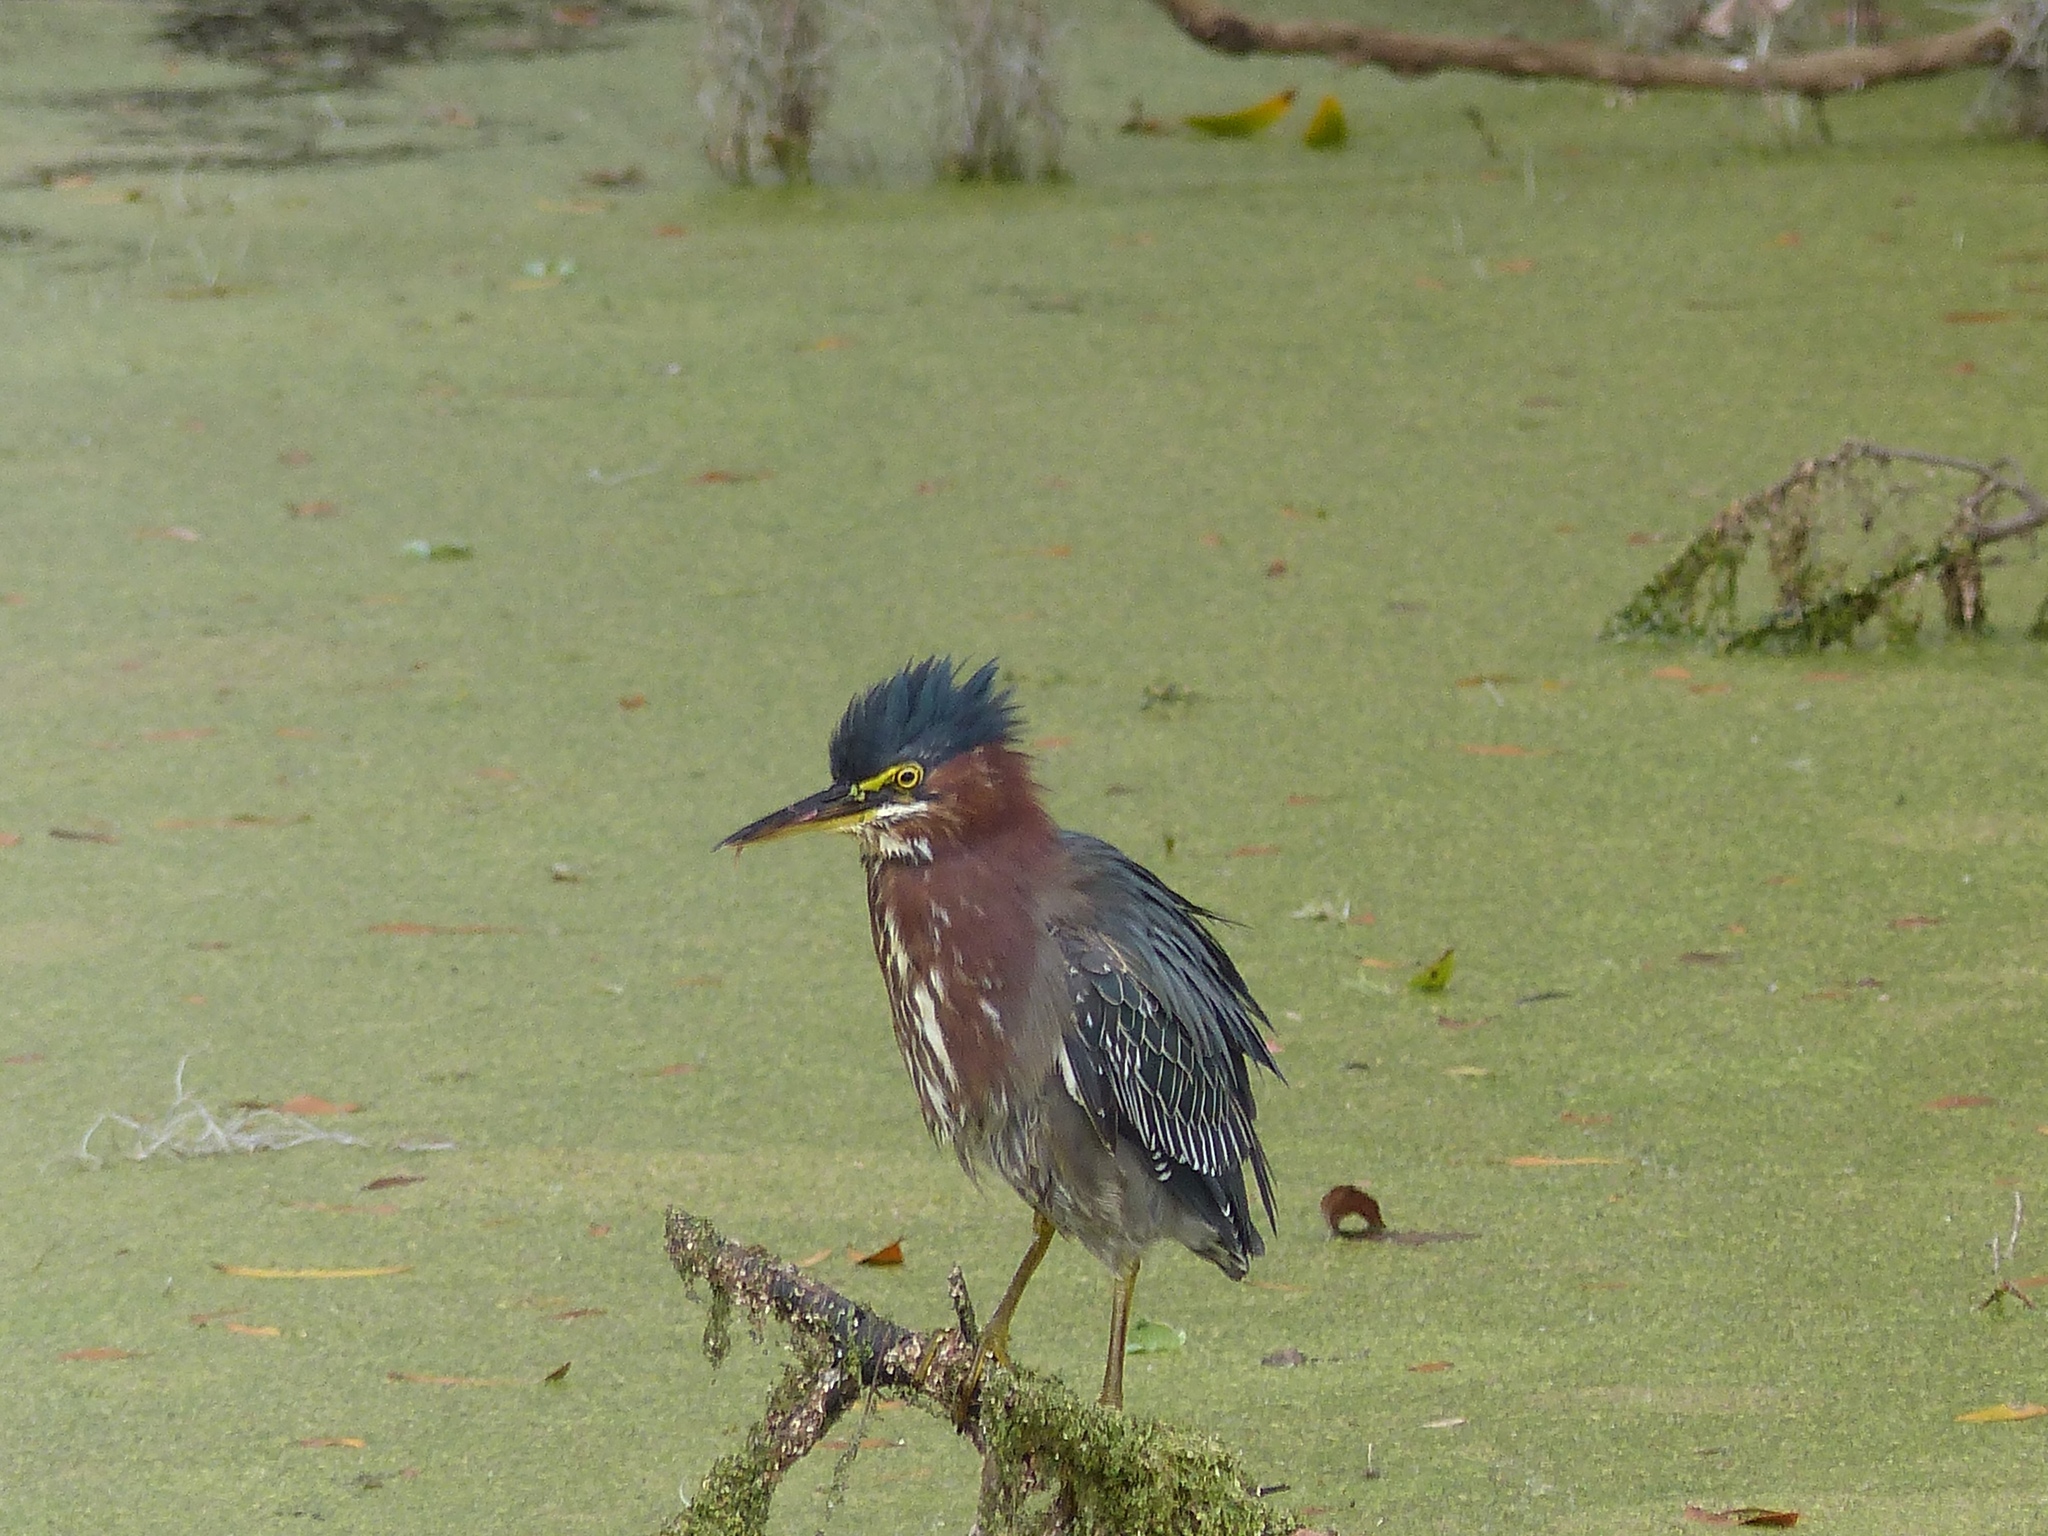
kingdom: Animalia
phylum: Chordata
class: Aves
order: Pelecaniformes
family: Ardeidae
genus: Butorides
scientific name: Butorides virescens
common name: Green heron
